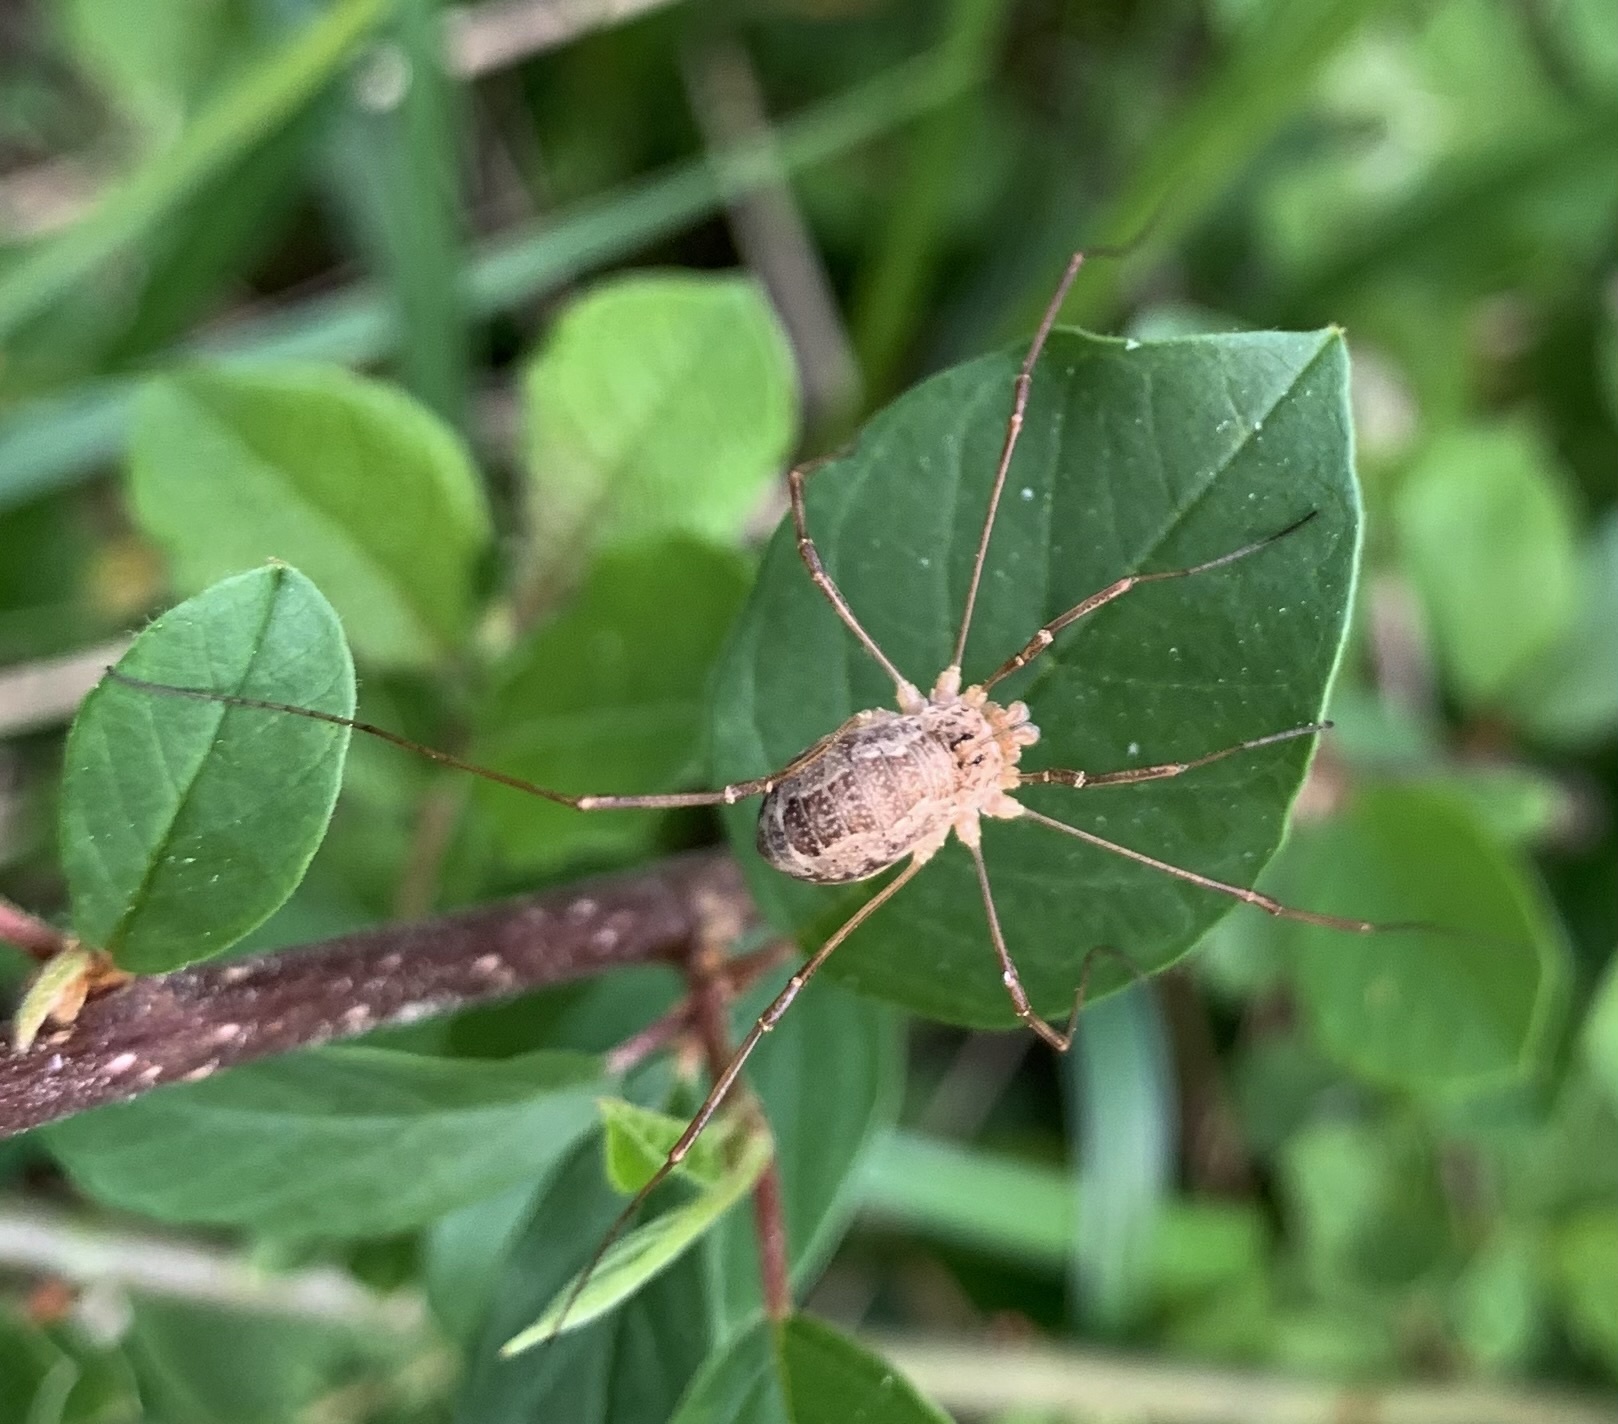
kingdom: Animalia
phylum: Arthropoda
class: Arachnida
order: Opiliones
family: Phalangiidae
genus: Rilaena
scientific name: Rilaena triangularis
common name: Spring harvestman
